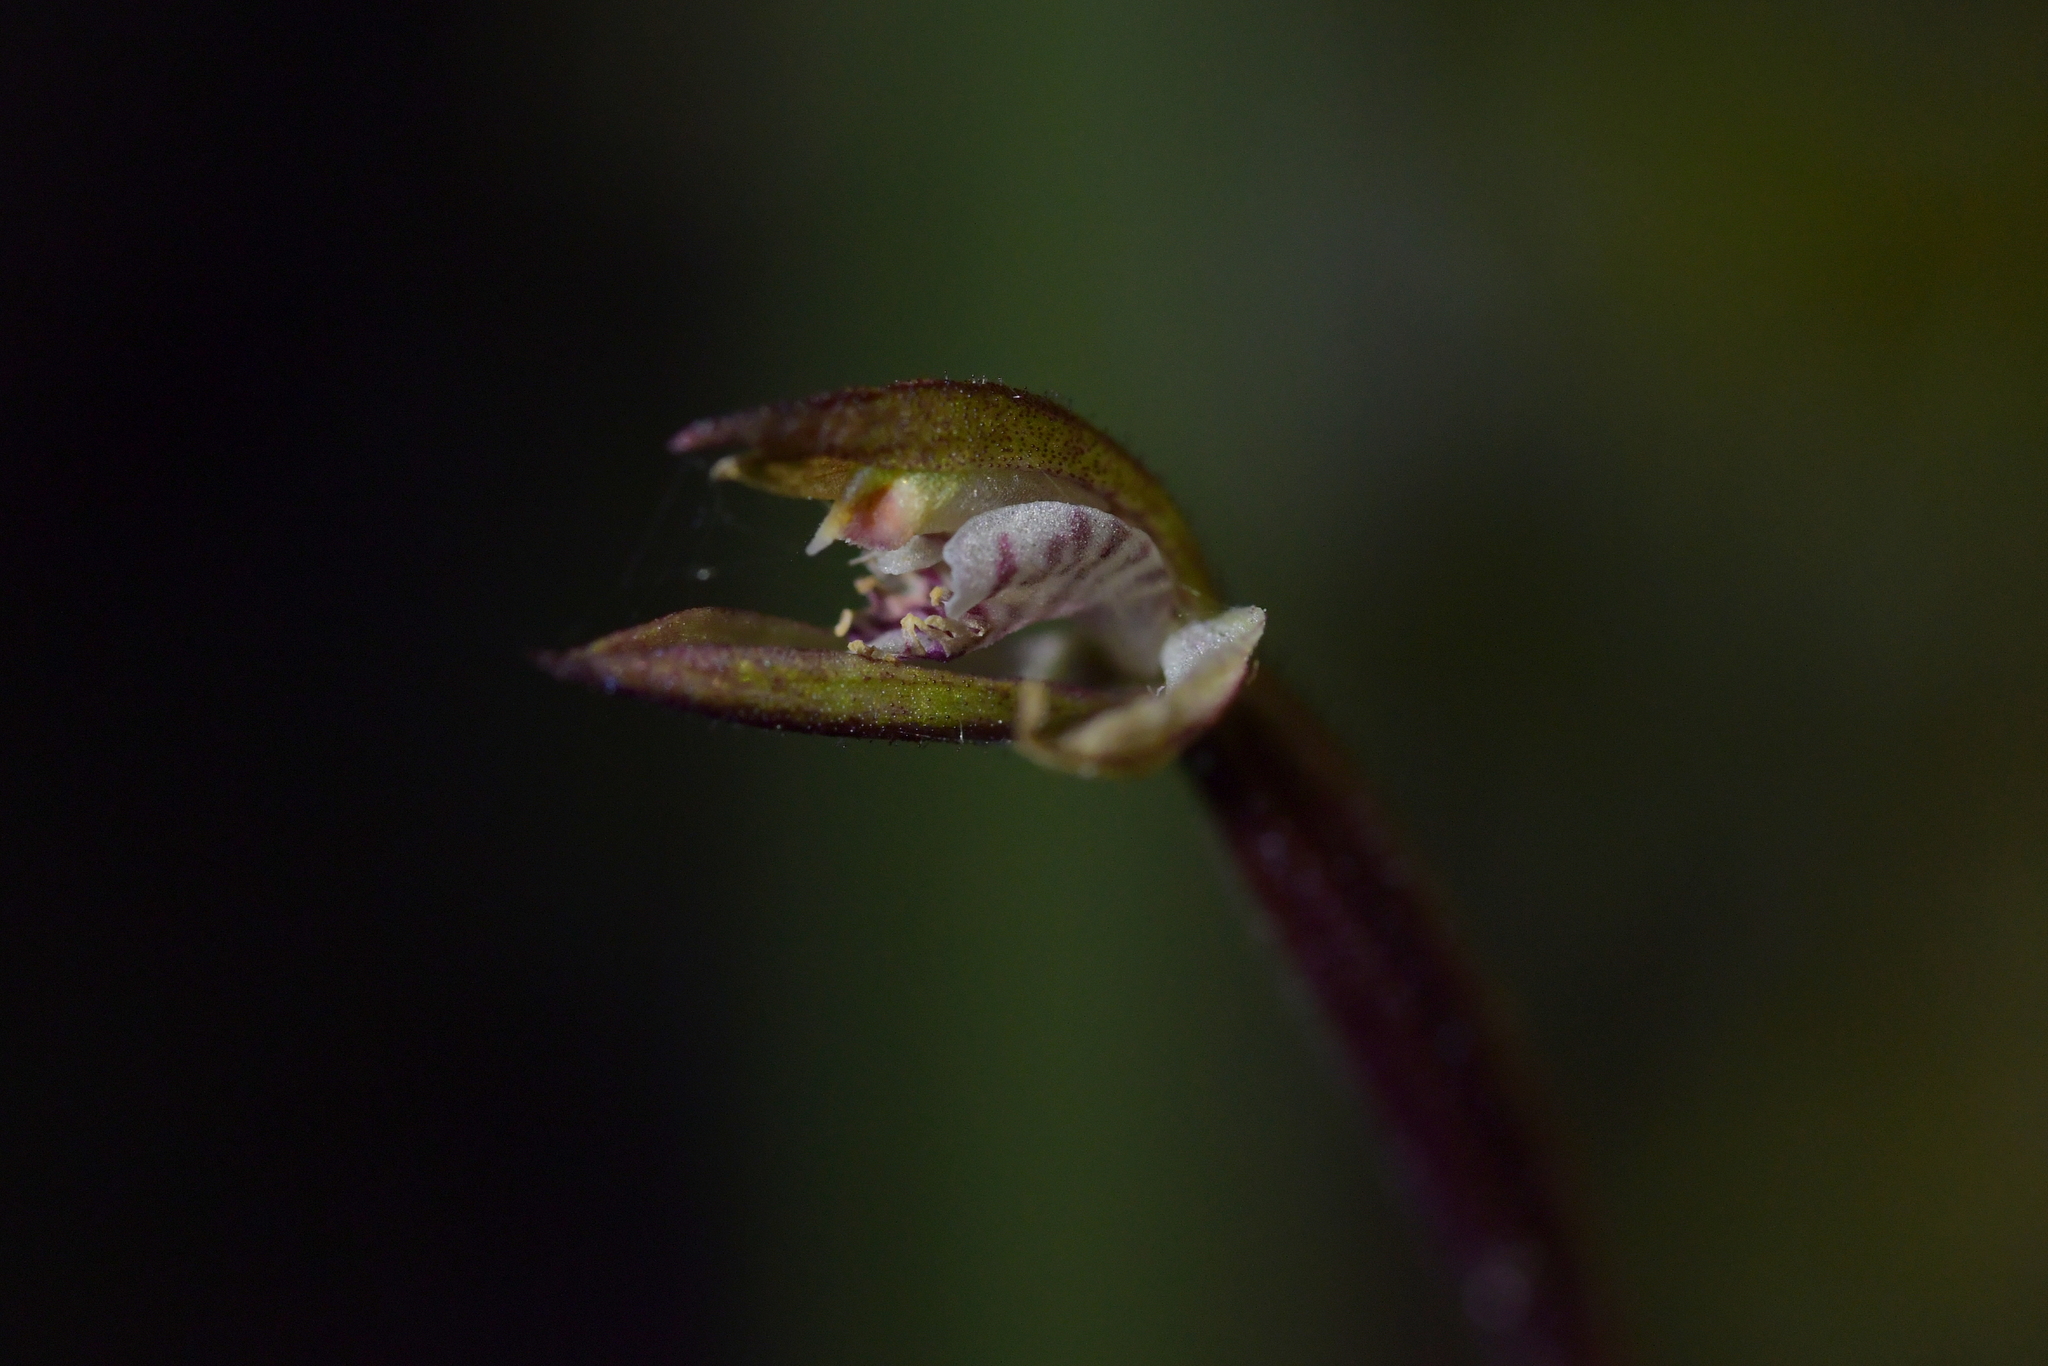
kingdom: Plantae
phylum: Tracheophyta
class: Liliopsida
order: Asparagales
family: Orchidaceae
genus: Caladenia
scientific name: Caladenia chlorostyla
